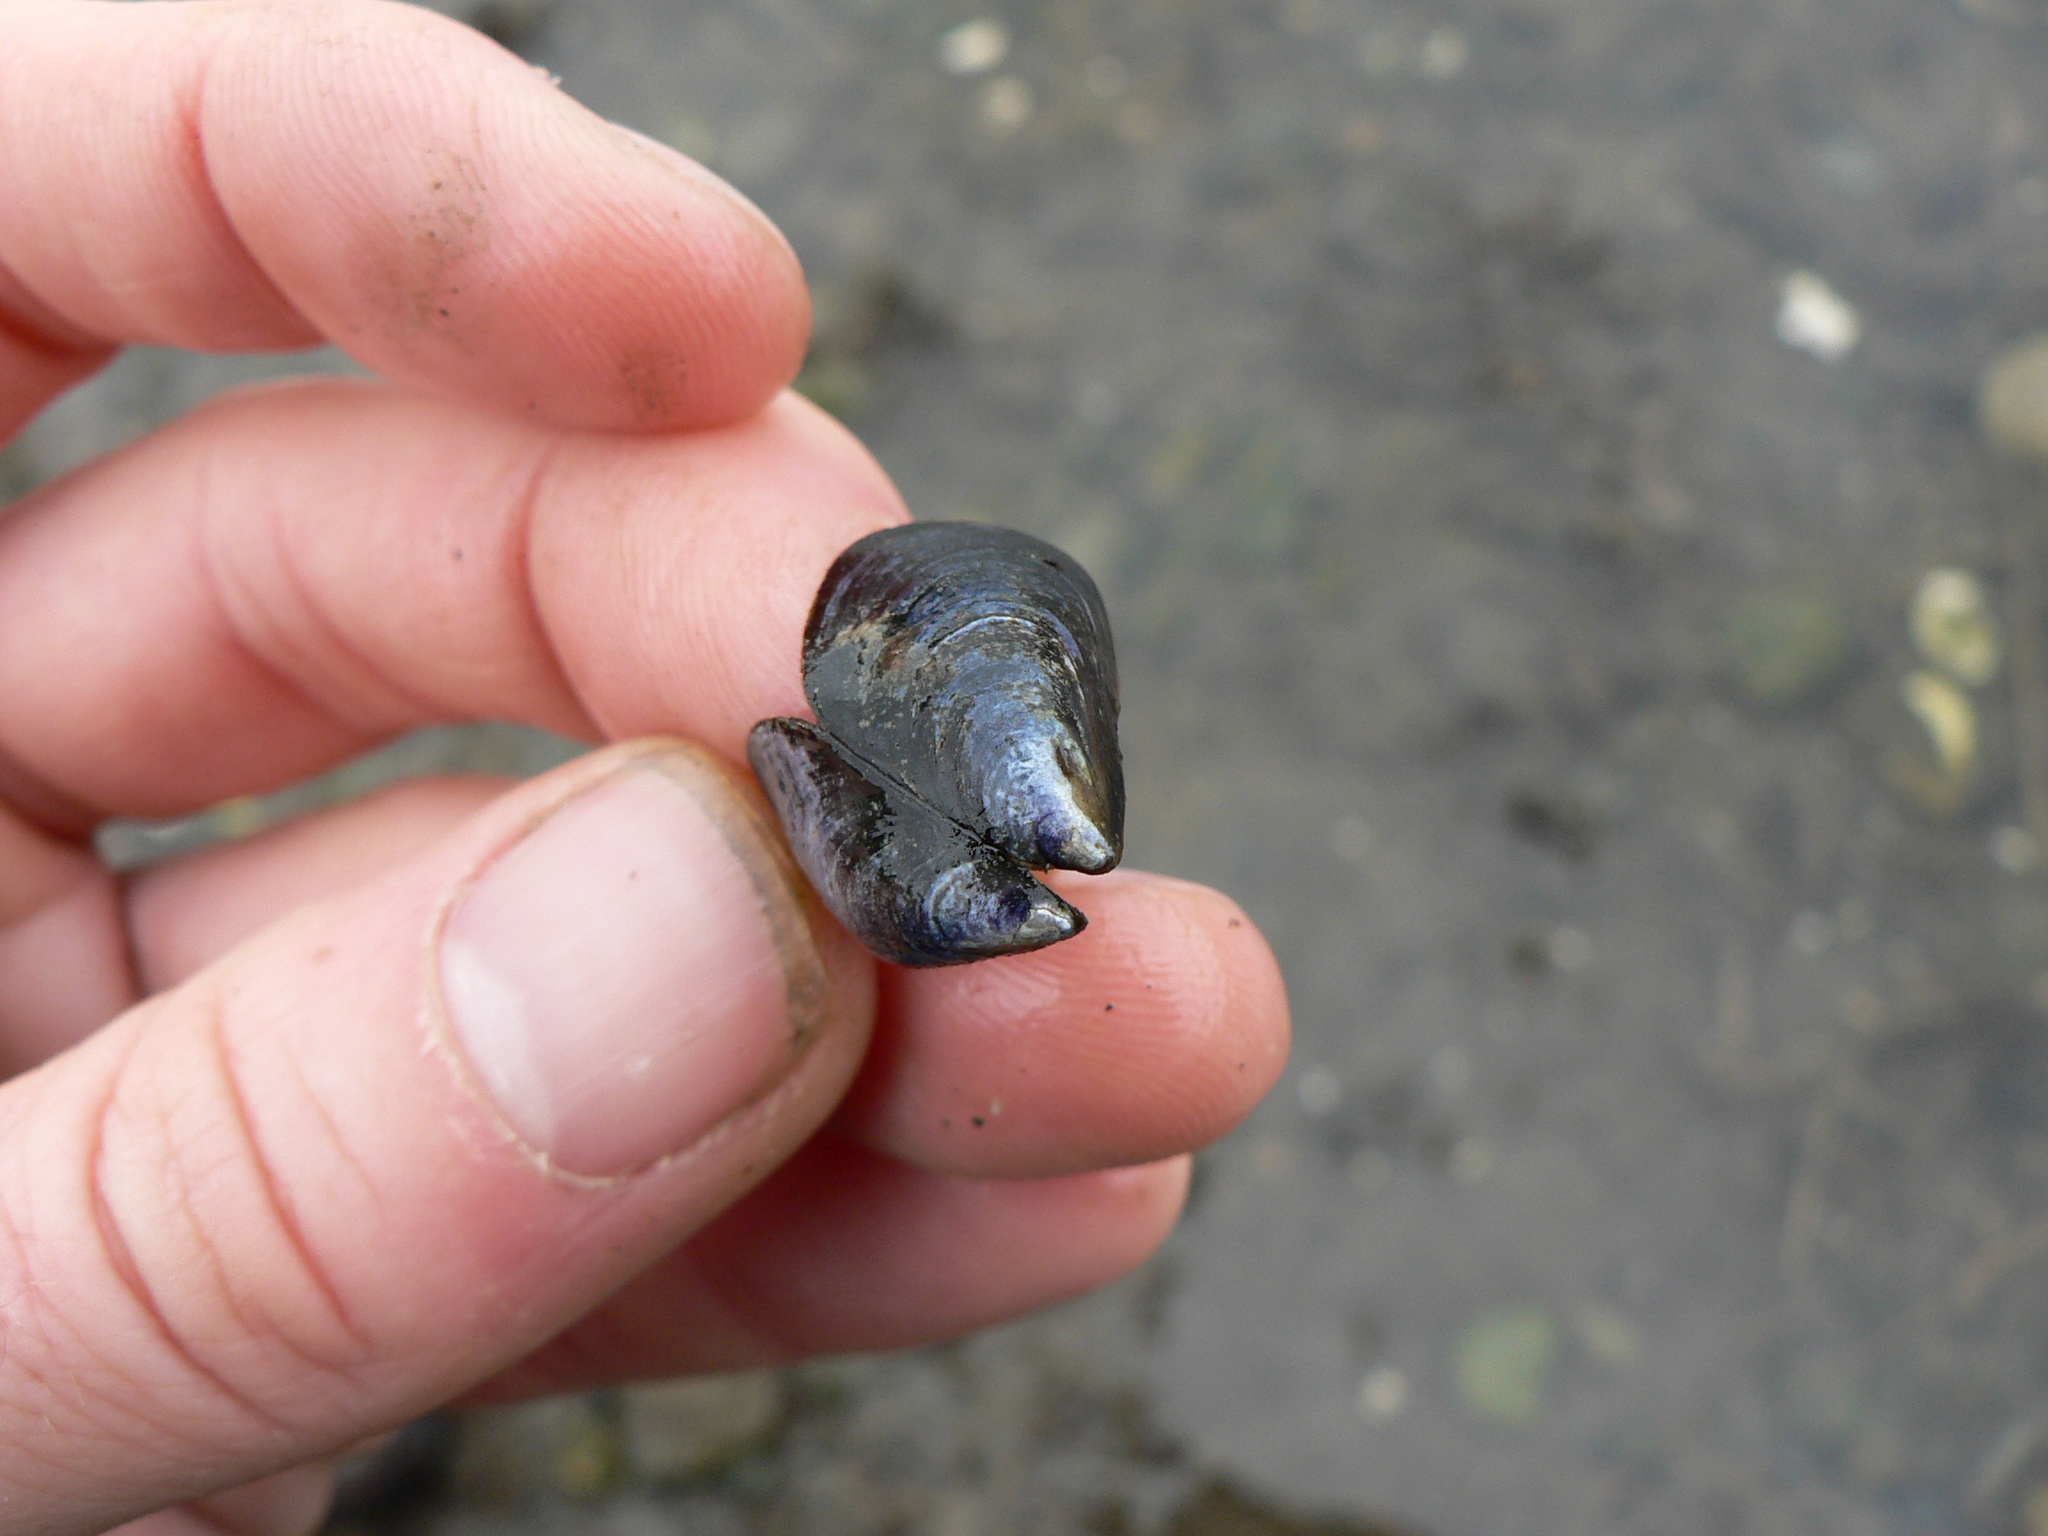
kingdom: Animalia
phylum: Mollusca
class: Bivalvia
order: Mytilida
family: Mytilidae
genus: Mytilus
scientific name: Mytilus
